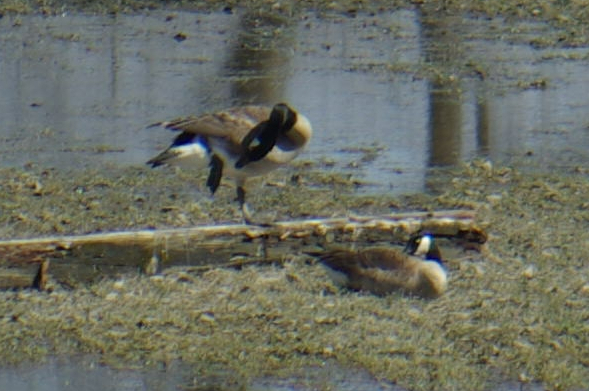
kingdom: Animalia
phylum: Chordata
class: Aves
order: Anseriformes
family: Anatidae
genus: Branta
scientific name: Branta canadensis
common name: Canada goose
